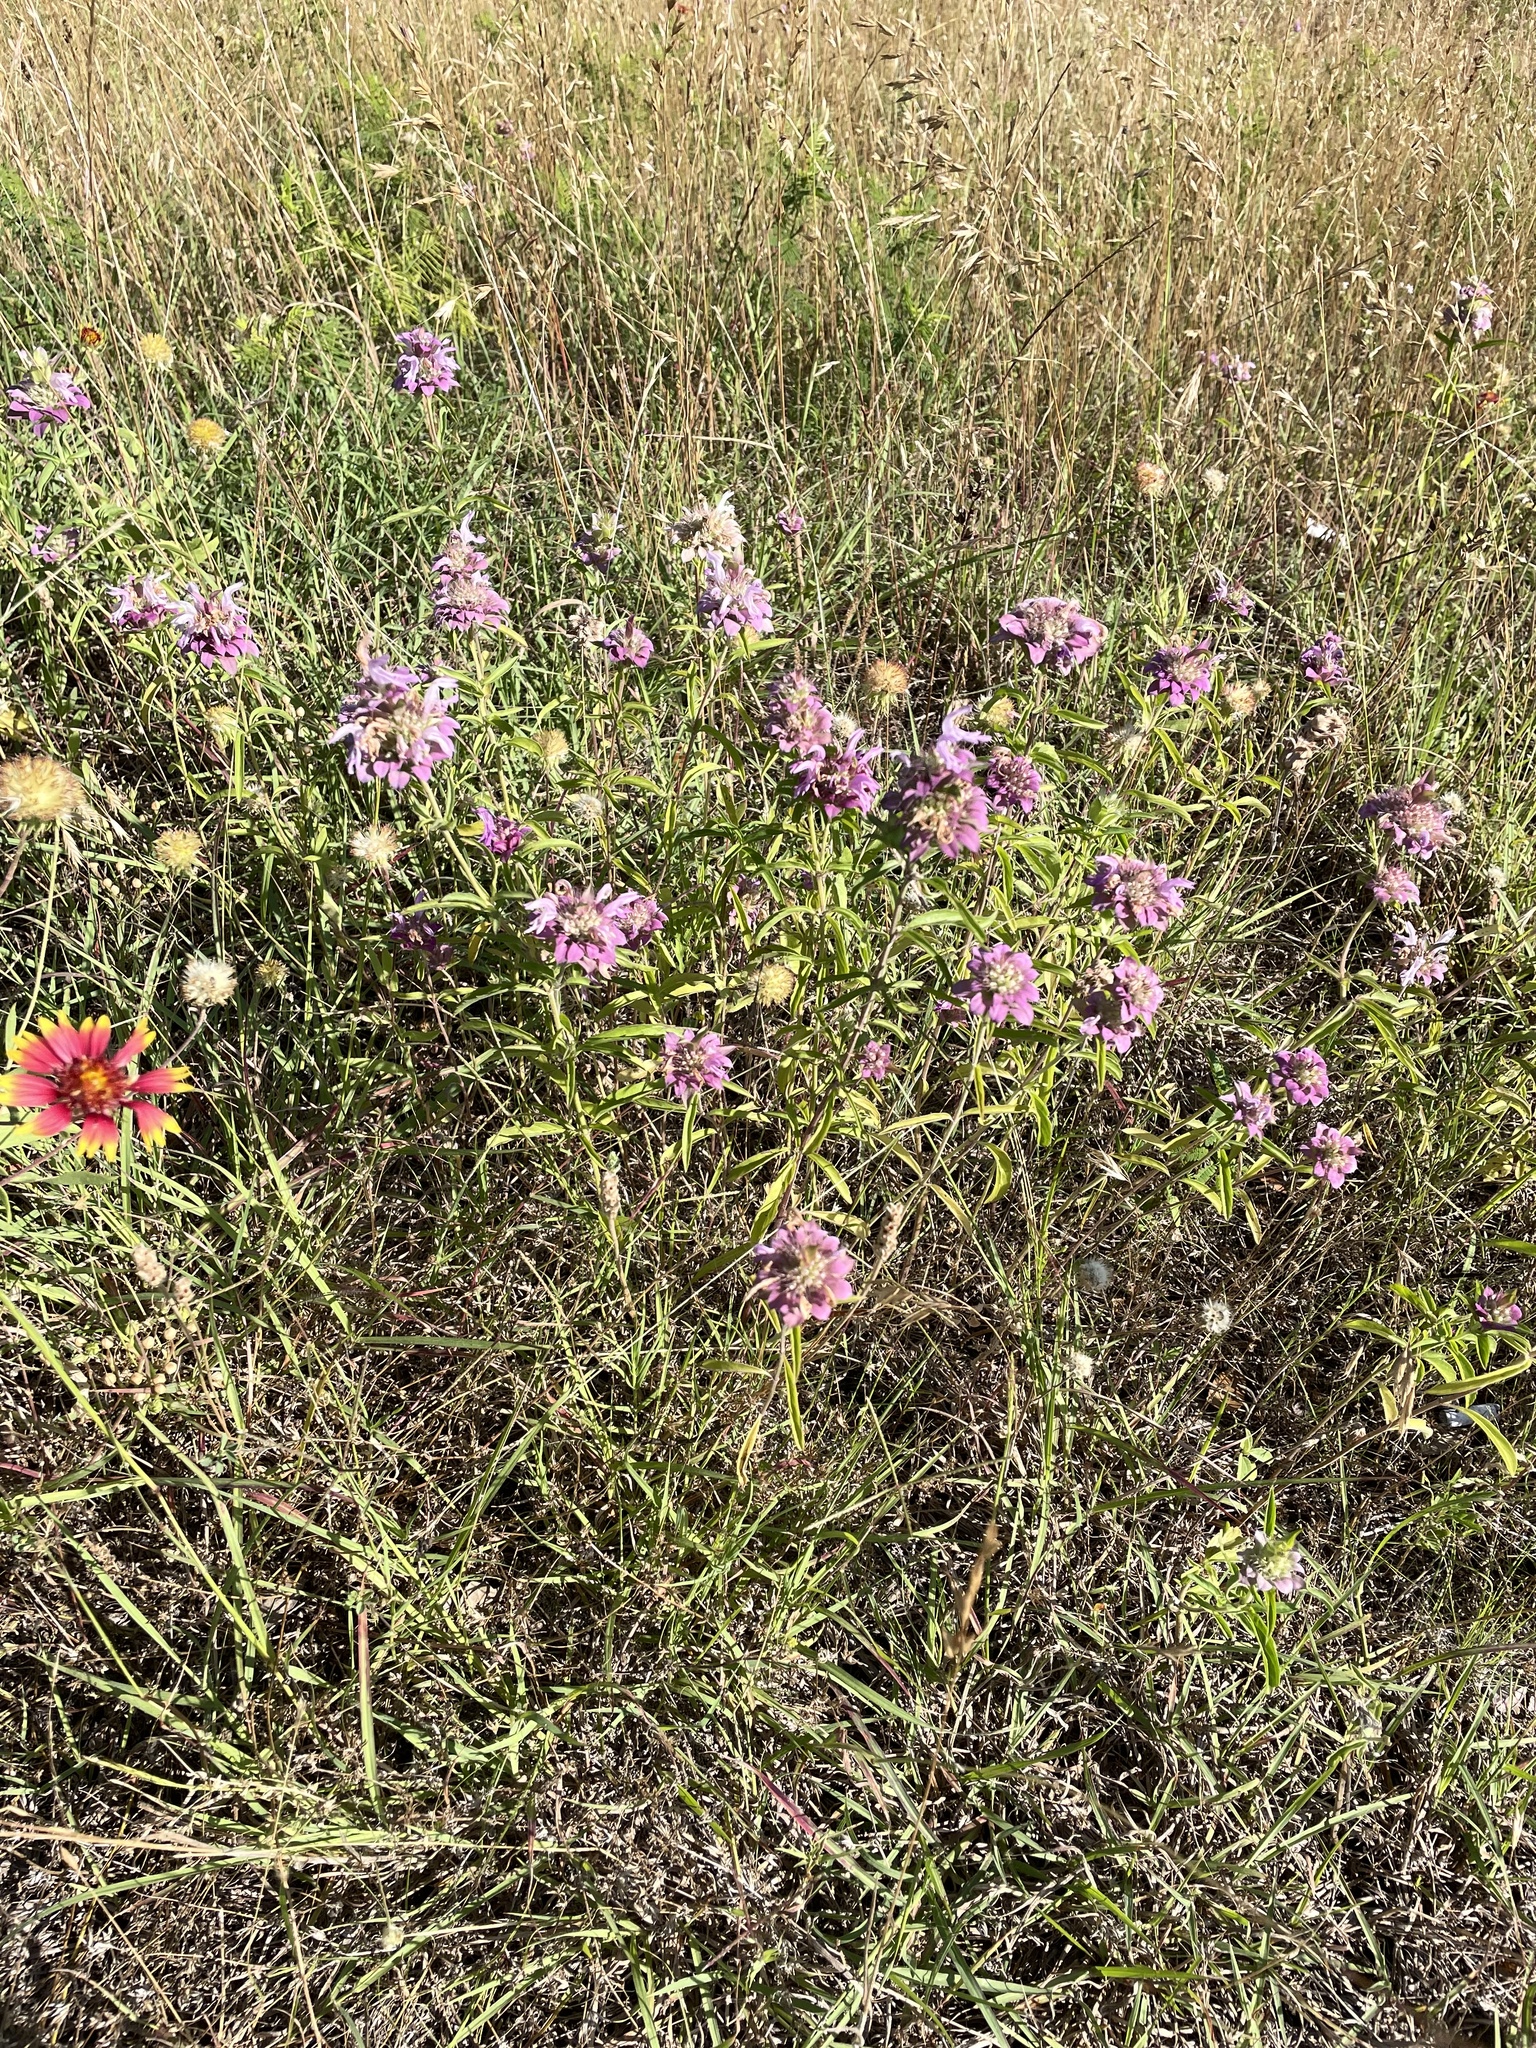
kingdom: Plantae
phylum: Tracheophyta
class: Magnoliopsida
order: Lamiales
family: Lamiaceae
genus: Monarda
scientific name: Monarda citriodora
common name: Lemon beebalm
